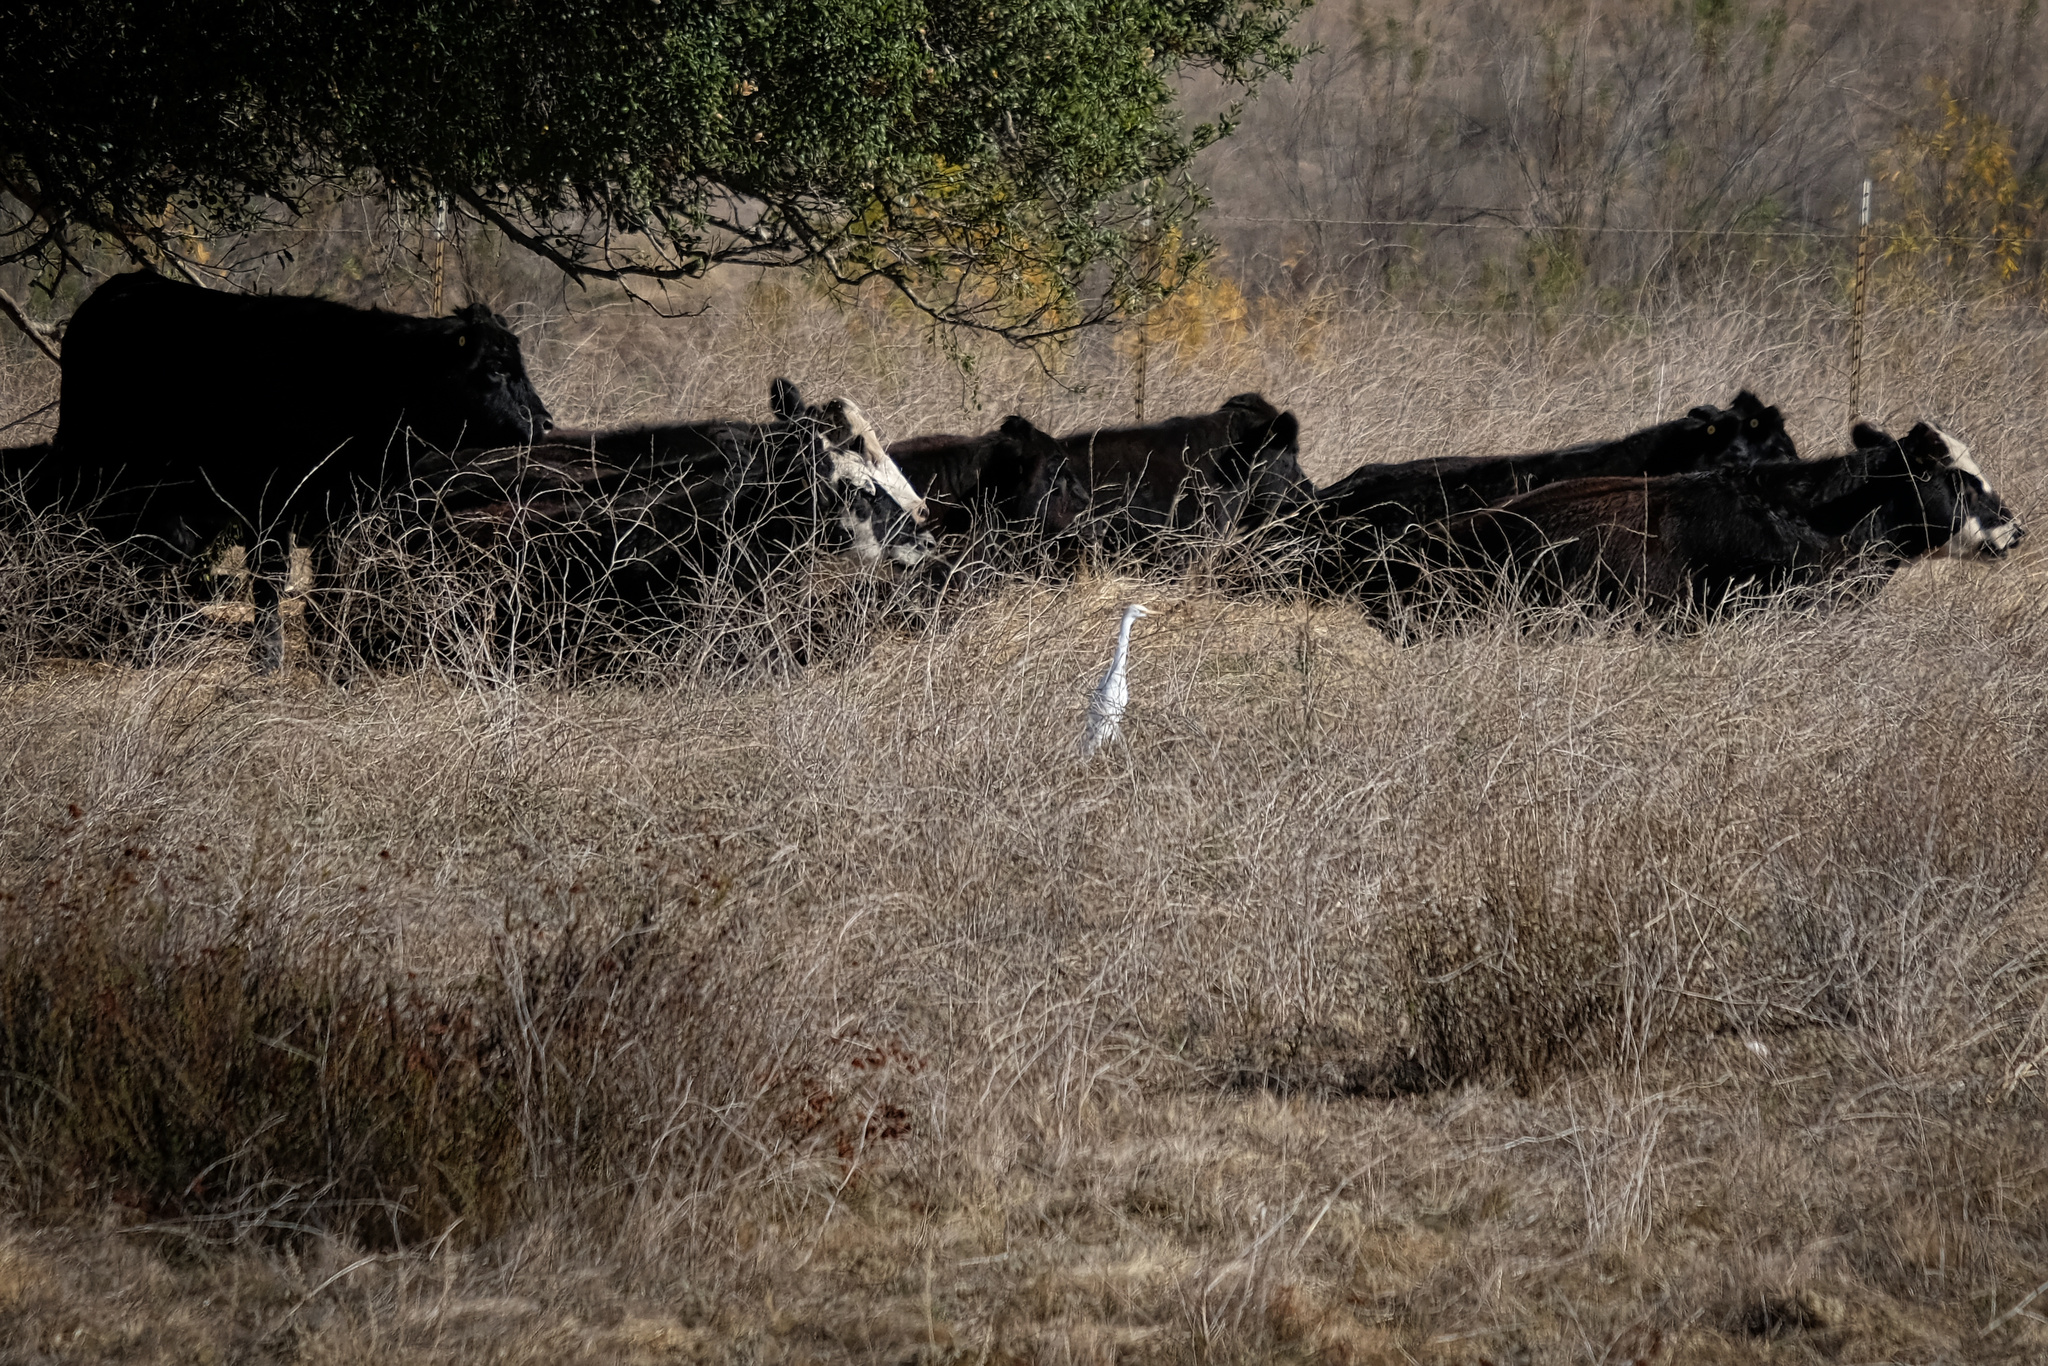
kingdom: Animalia
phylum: Chordata
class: Aves
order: Pelecaniformes
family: Ardeidae
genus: Bubulcus
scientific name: Bubulcus ibis
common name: Cattle egret
